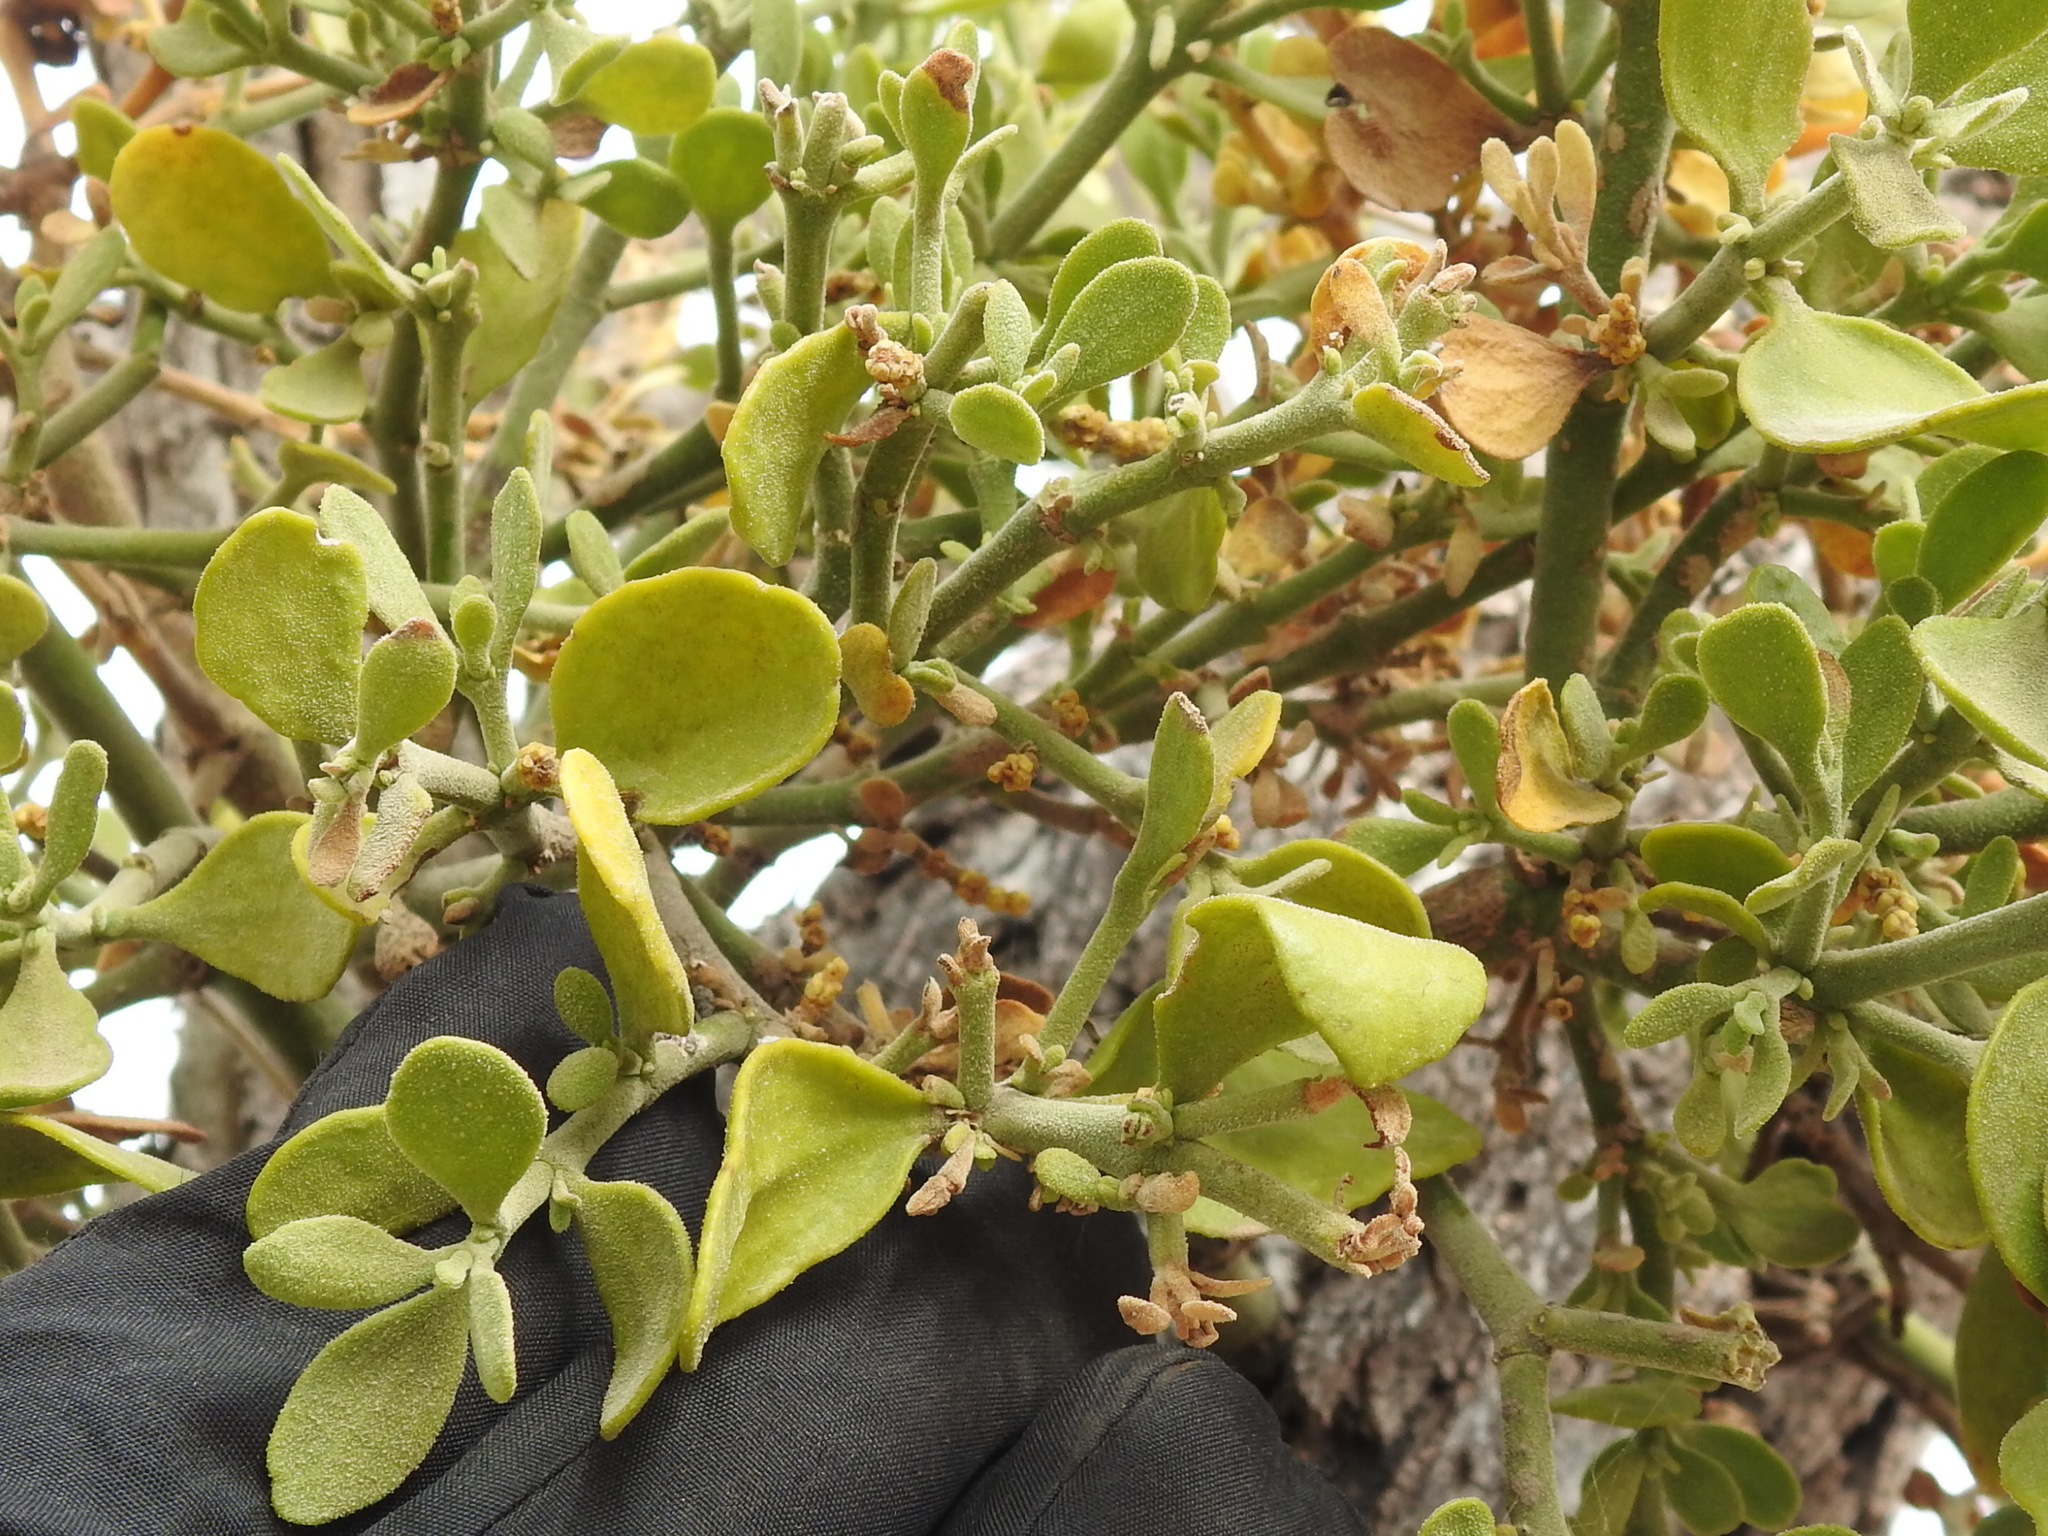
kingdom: Plantae
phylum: Tracheophyta
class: Magnoliopsida
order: Santalales
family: Viscaceae
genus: Phoradendron
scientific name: Phoradendron leucarpum
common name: Pacific mistletoe
